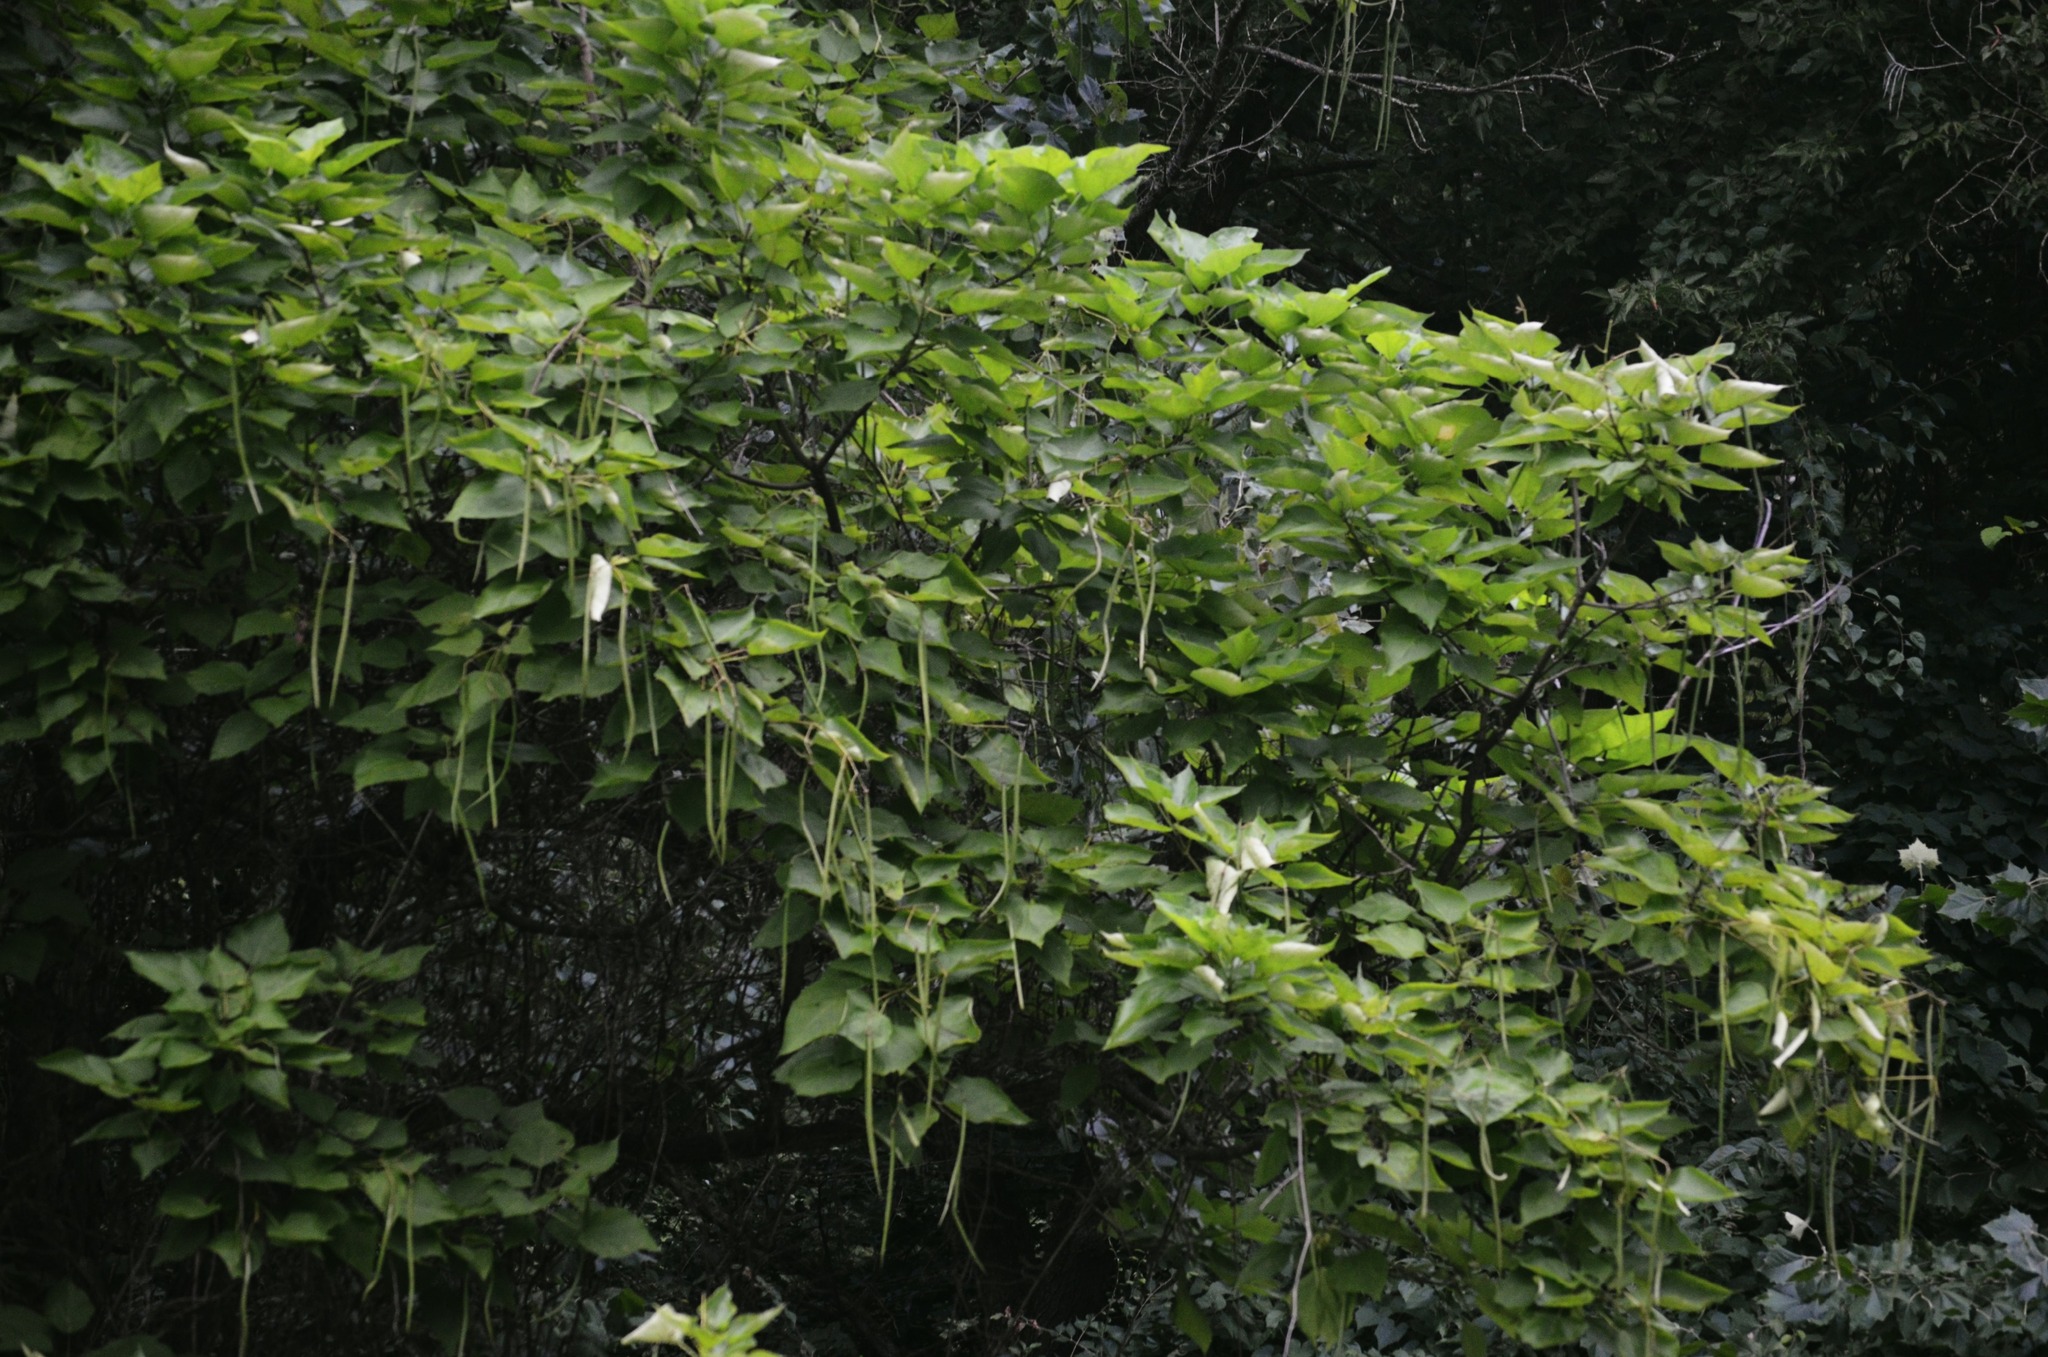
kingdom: Plantae
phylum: Tracheophyta
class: Magnoliopsida
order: Lamiales
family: Bignoniaceae
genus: Catalpa
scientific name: Catalpa speciosa
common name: Northern catalpa
